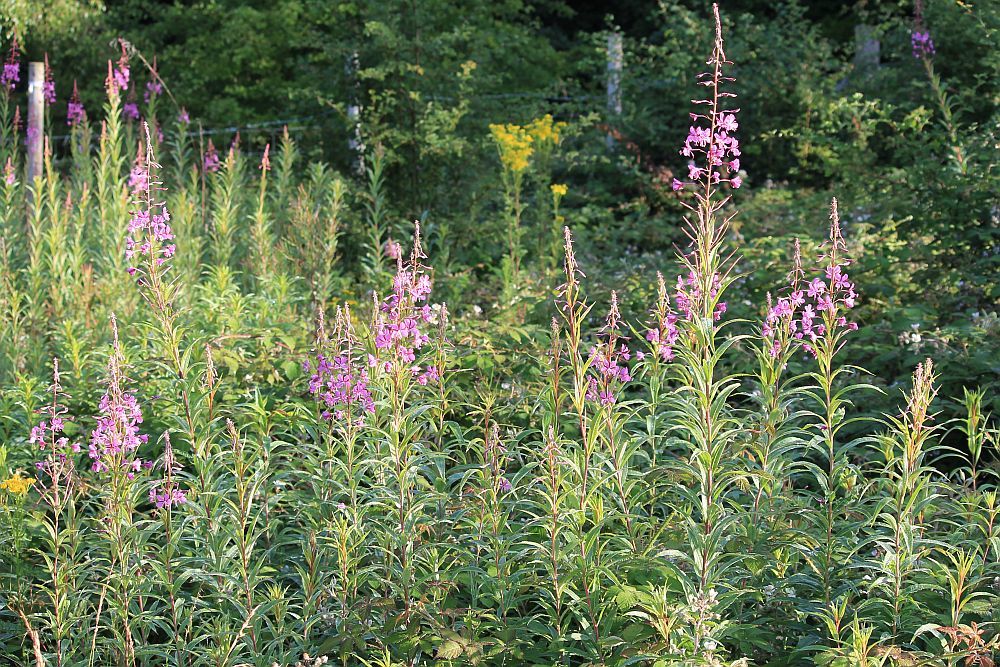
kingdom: Plantae
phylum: Tracheophyta
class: Magnoliopsida
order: Myrtales
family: Onagraceae
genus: Chamaenerion
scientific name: Chamaenerion angustifolium
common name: Fireweed
